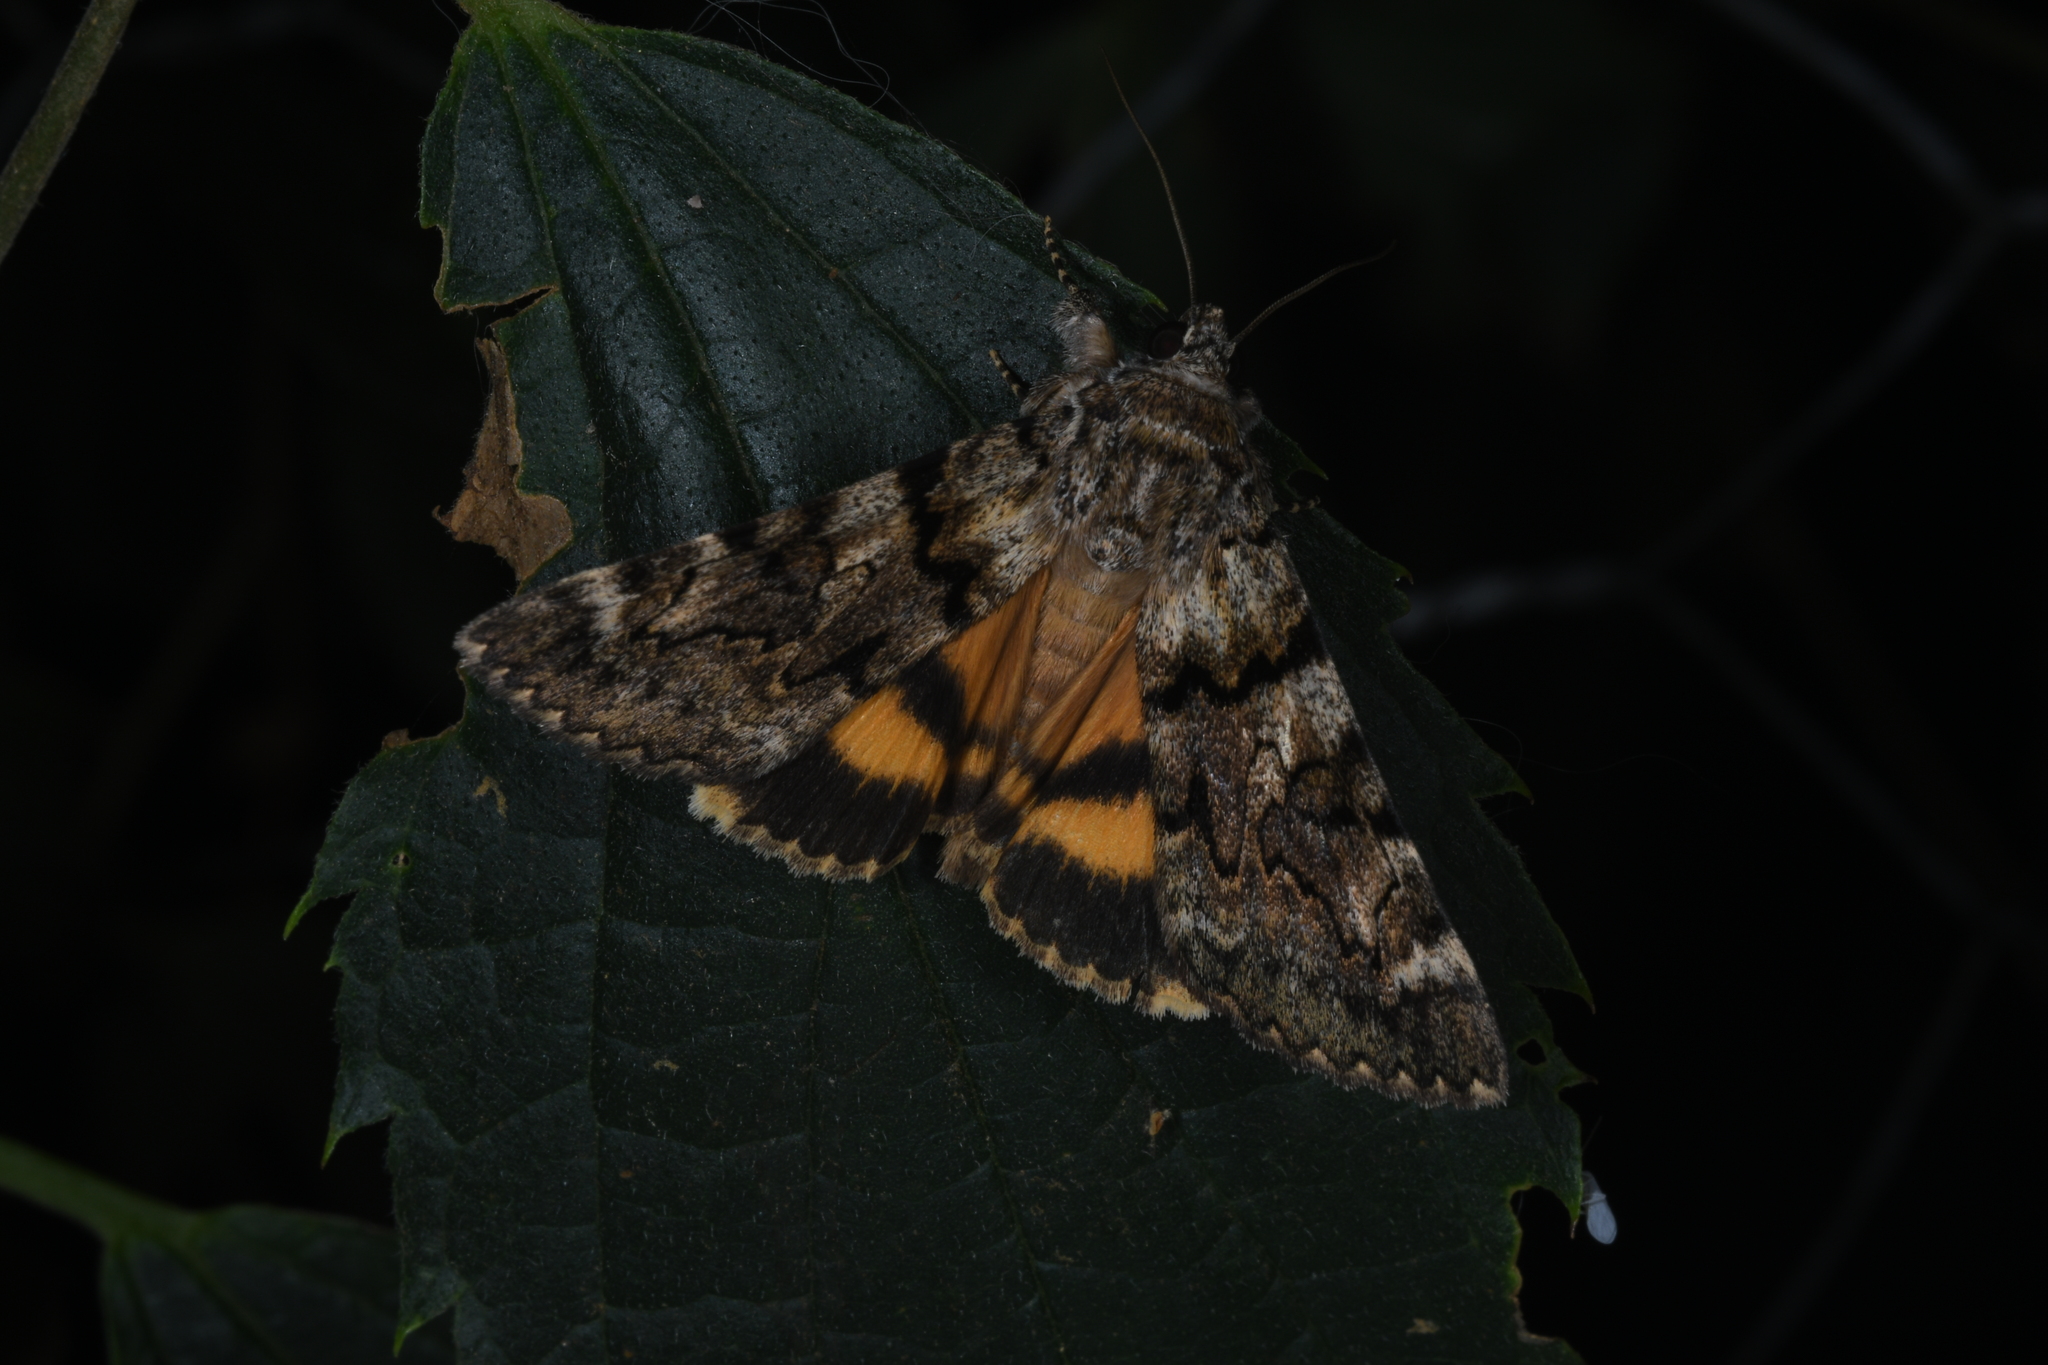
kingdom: Animalia
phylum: Arthropoda
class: Insecta
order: Lepidoptera
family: Erebidae
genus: Catocala
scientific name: Catocala nymphagoga
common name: Oak yellow underwing
